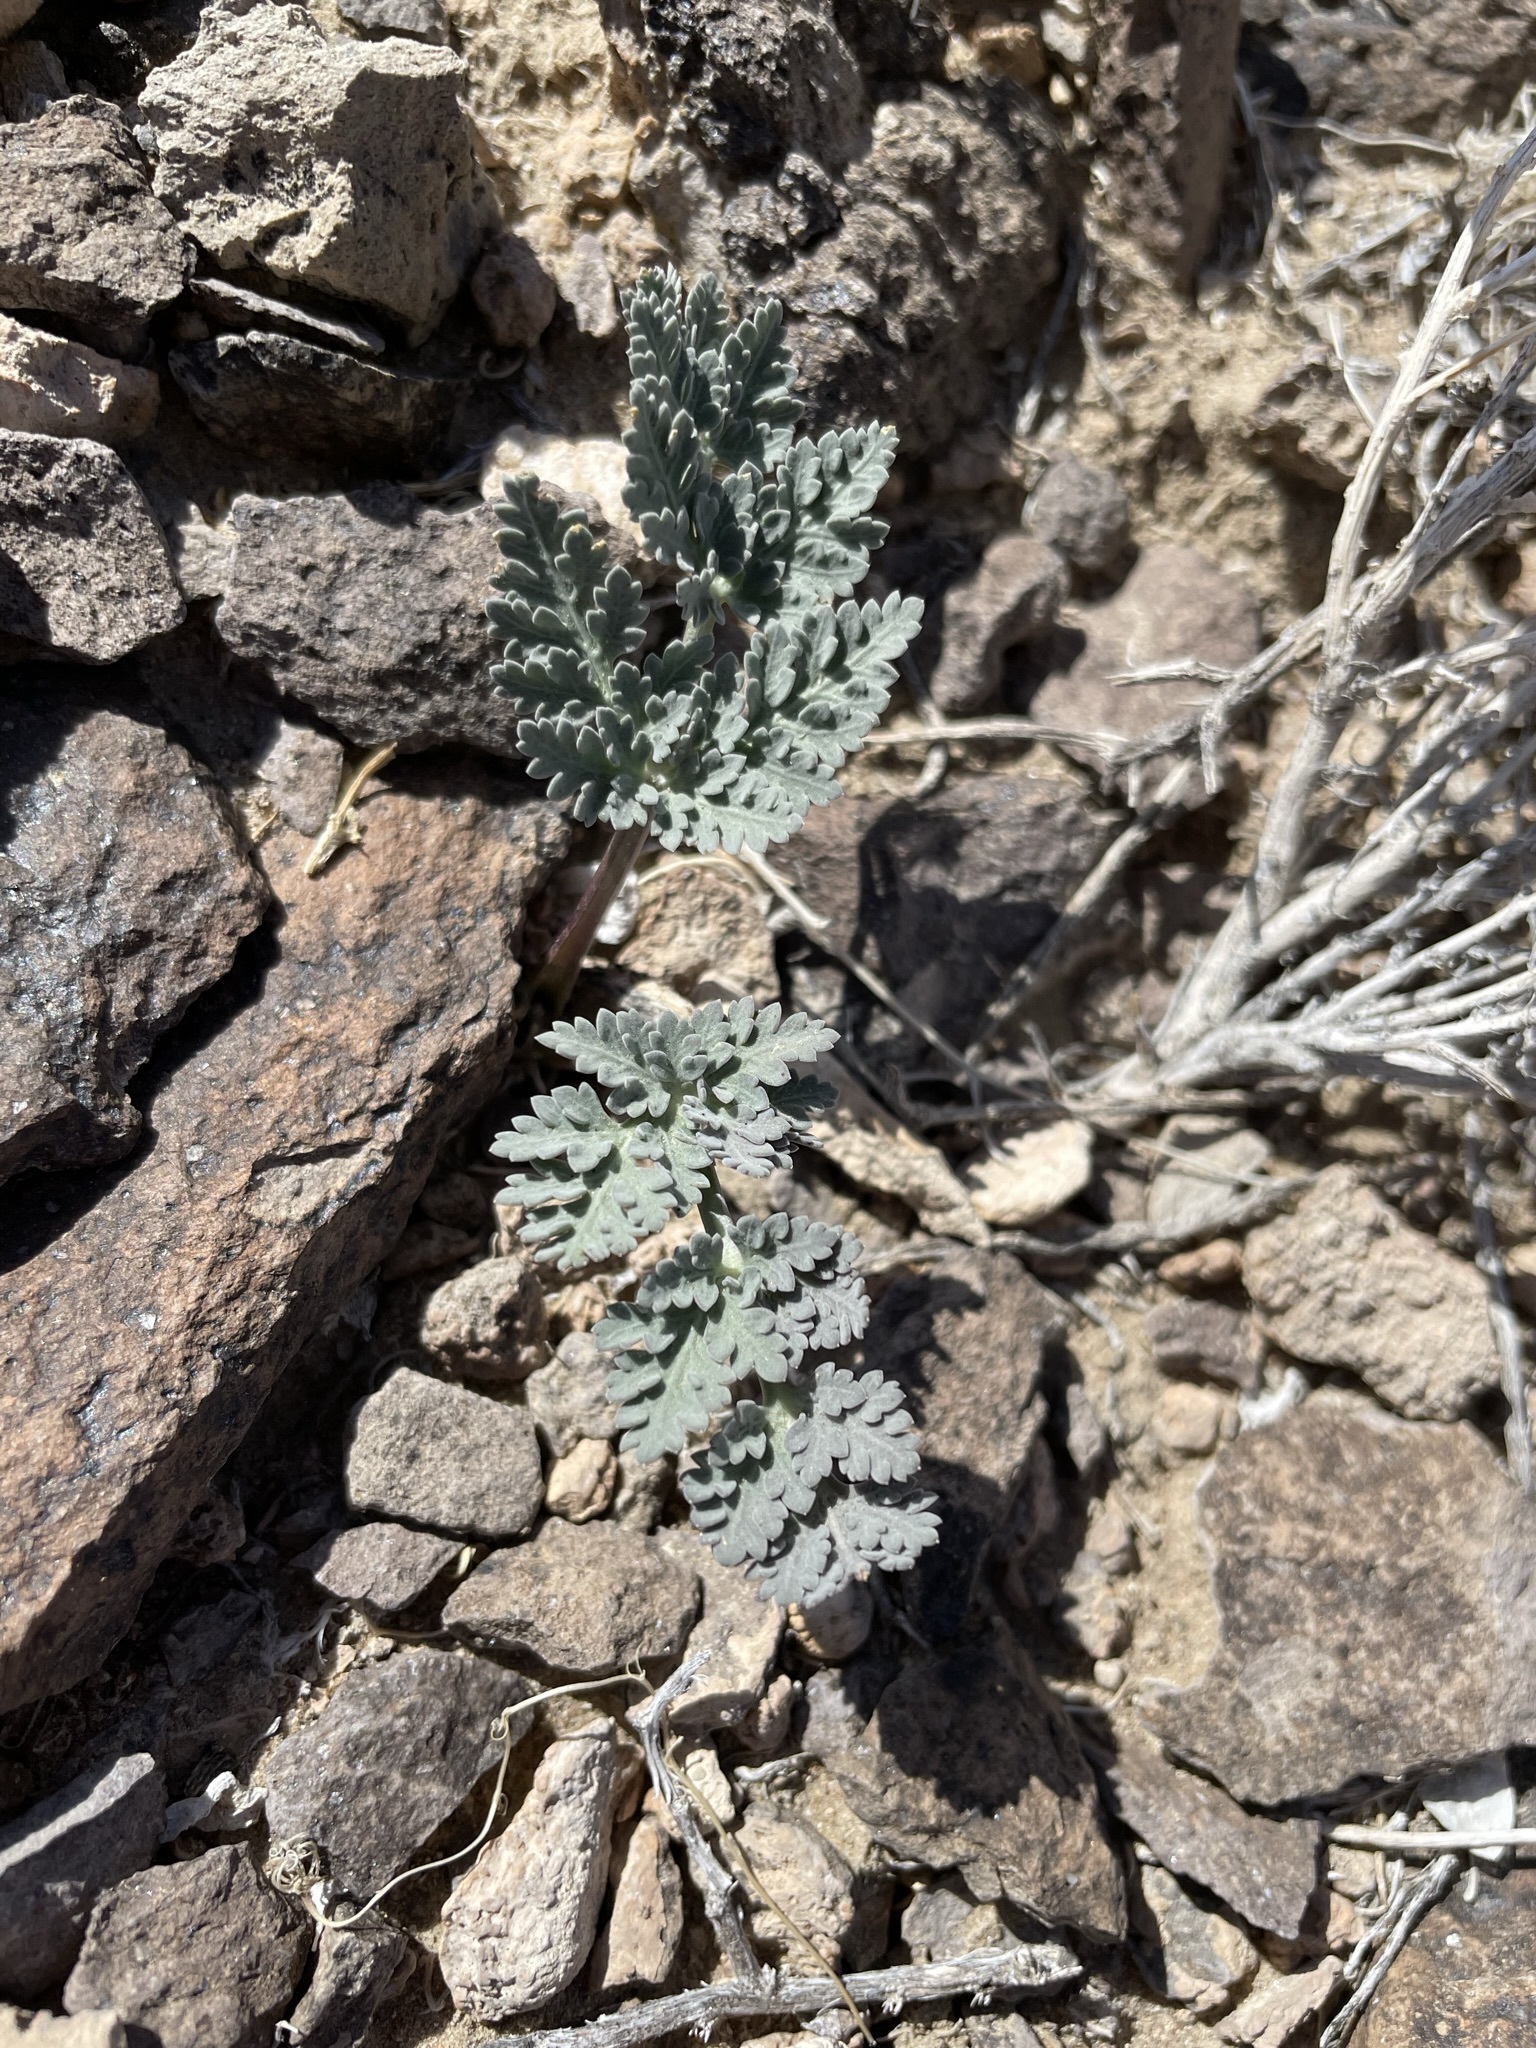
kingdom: Plantae
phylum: Tracheophyta
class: Magnoliopsida
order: Apiales
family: Apiaceae
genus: Cymopterus
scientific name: Cymopterus globosus
